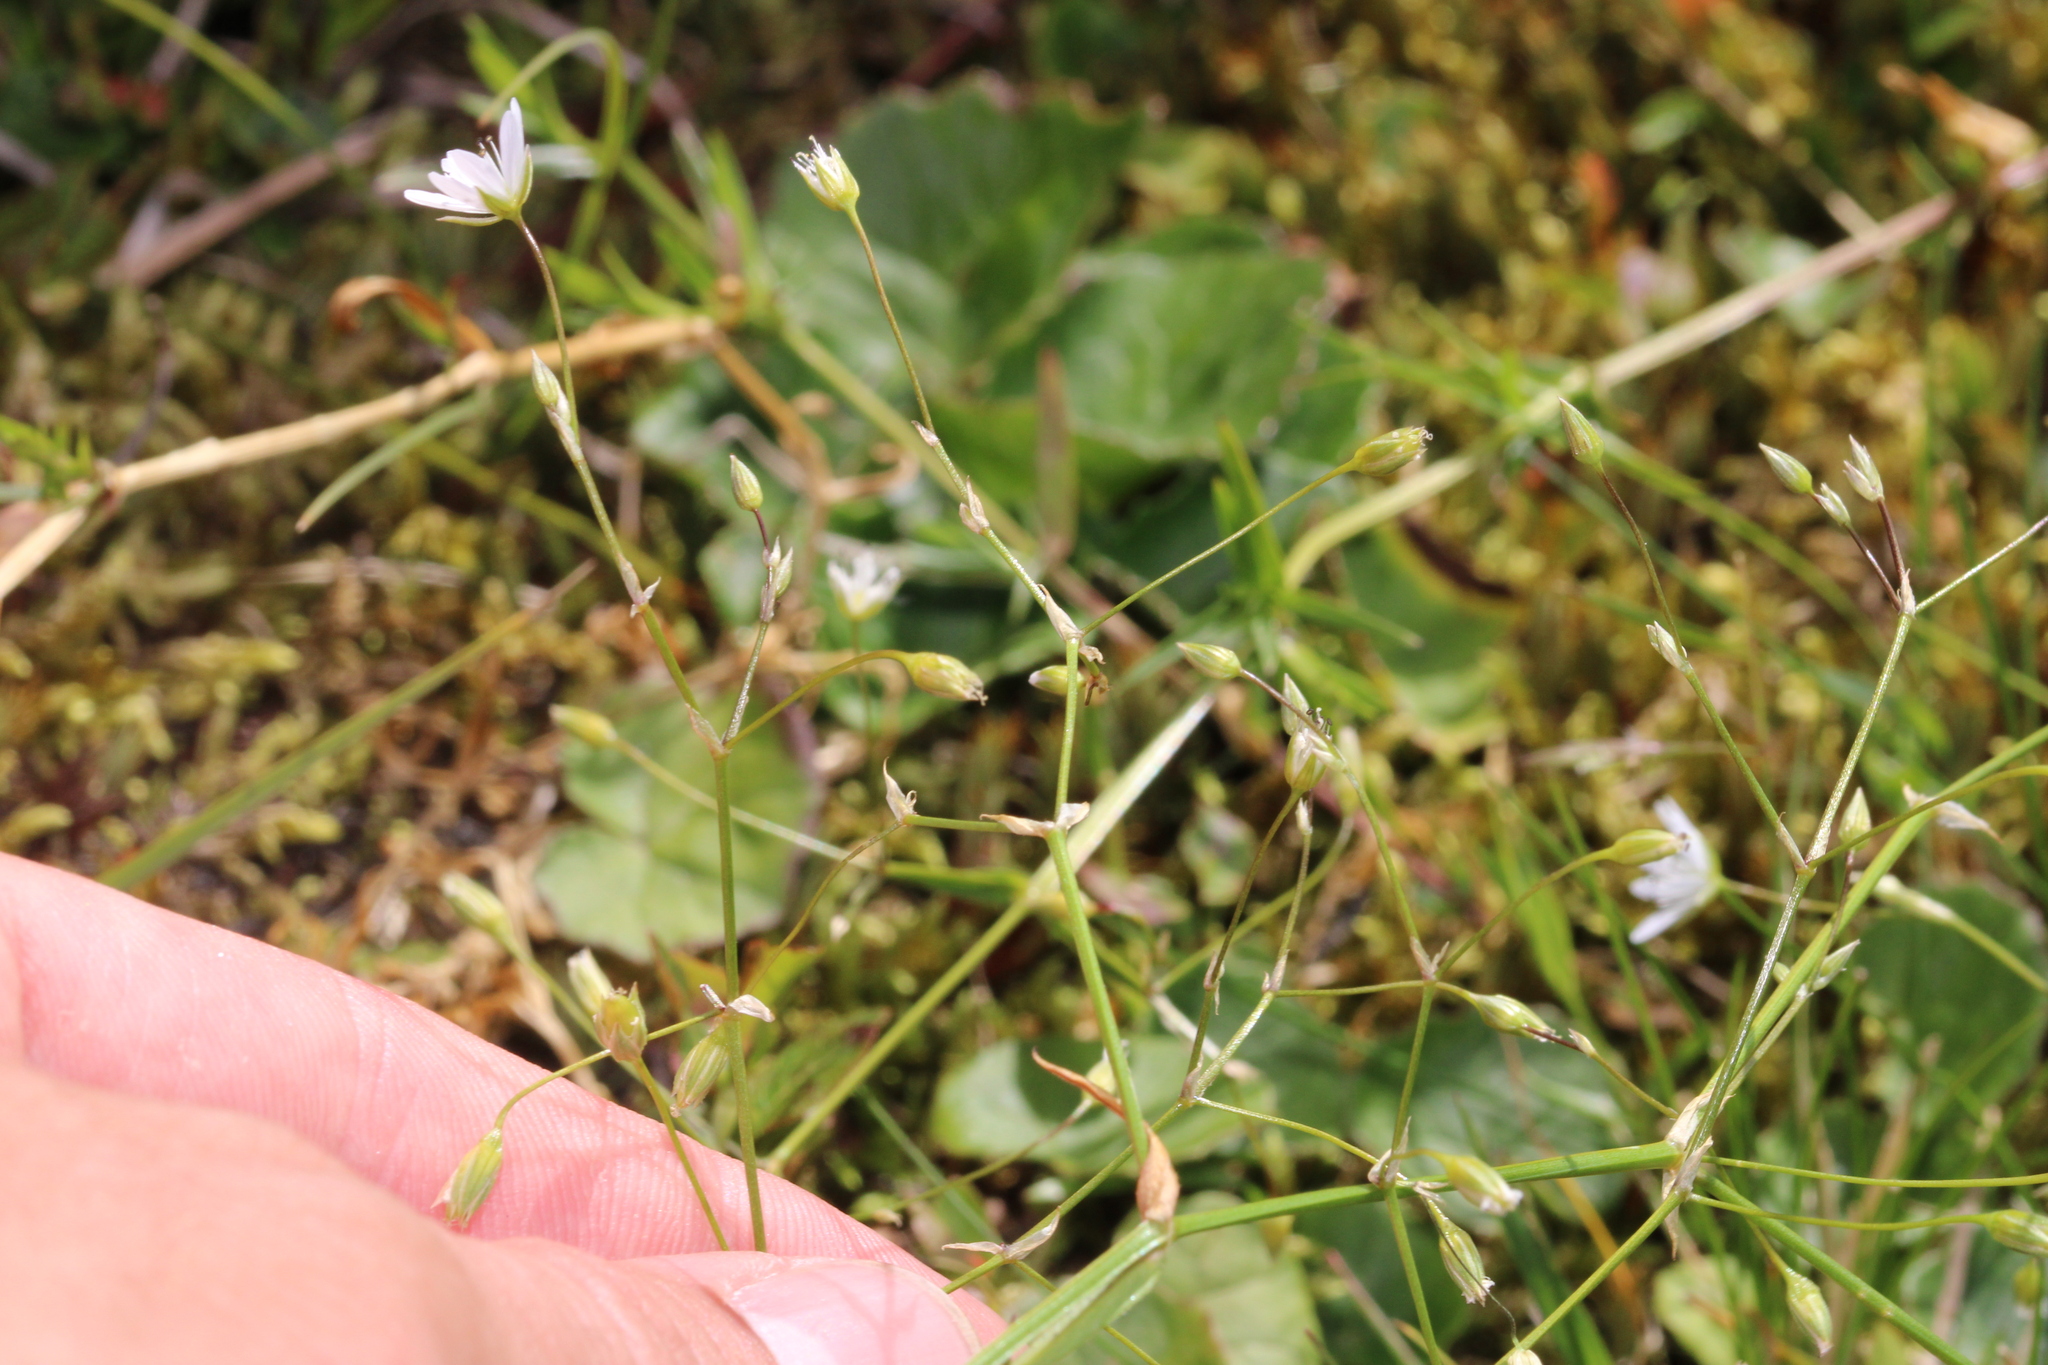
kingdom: Plantae
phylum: Tracheophyta
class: Magnoliopsida
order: Caryophyllales
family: Caryophyllaceae
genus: Stellaria
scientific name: Stellaria graminea
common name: Grass-like starwort
